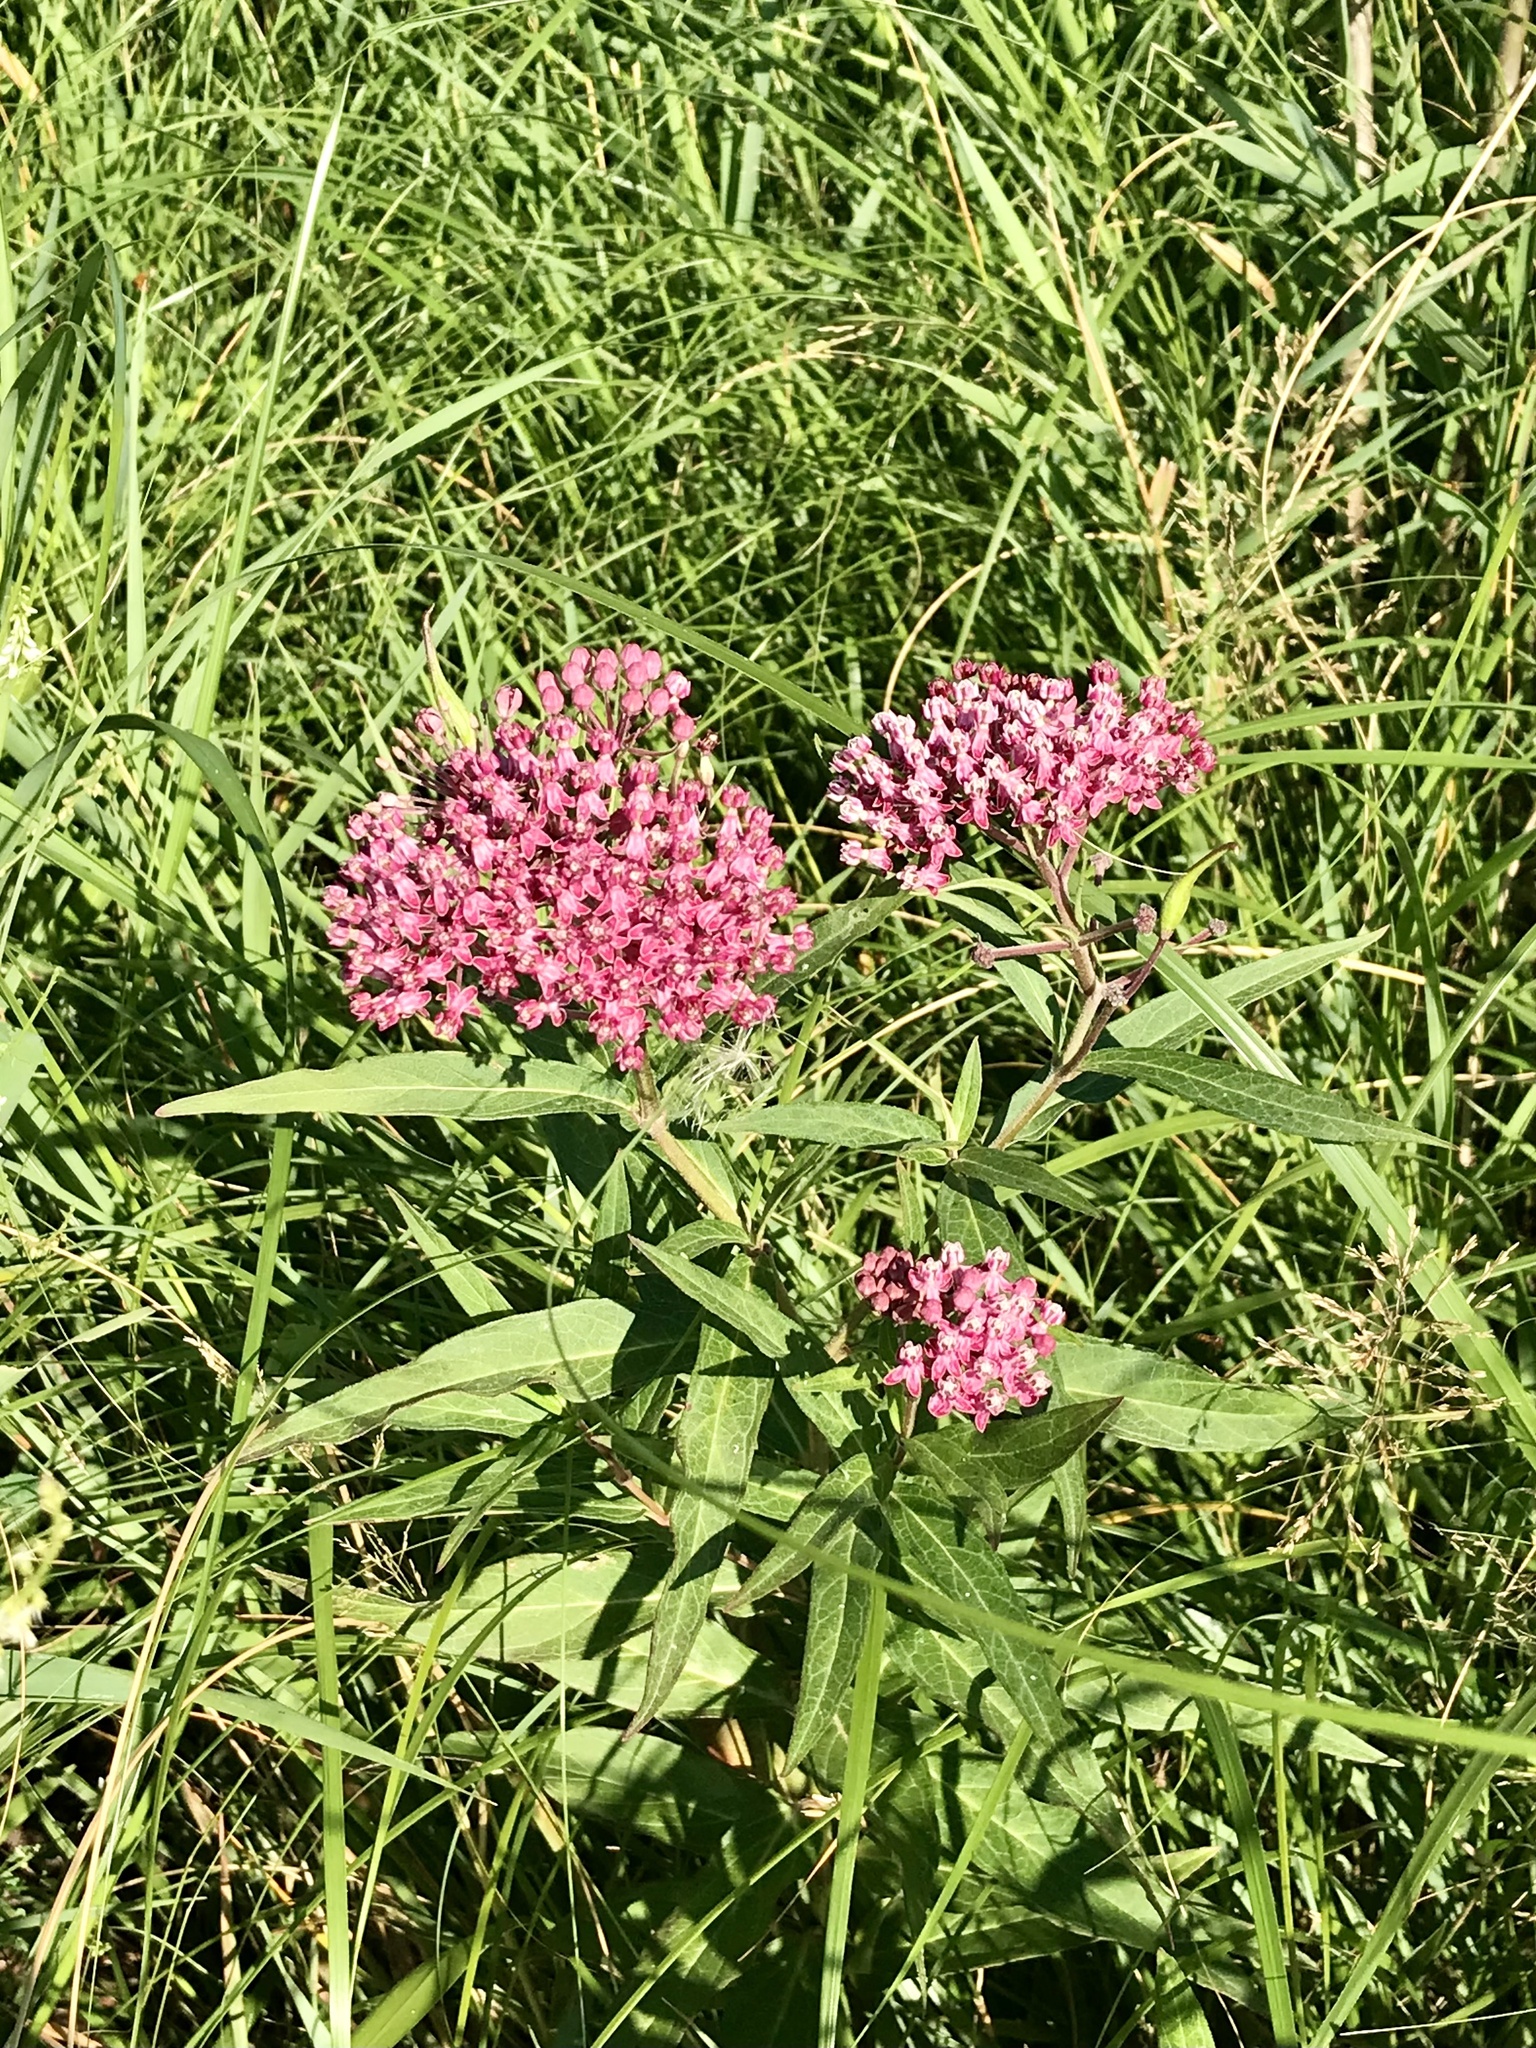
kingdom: Plantae
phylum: Tracheophyta
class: Magnoliopsida
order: Gentianales
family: Apocynaceae
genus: Asclepias
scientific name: Asclepias incarnata
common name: Swamp milkweed
